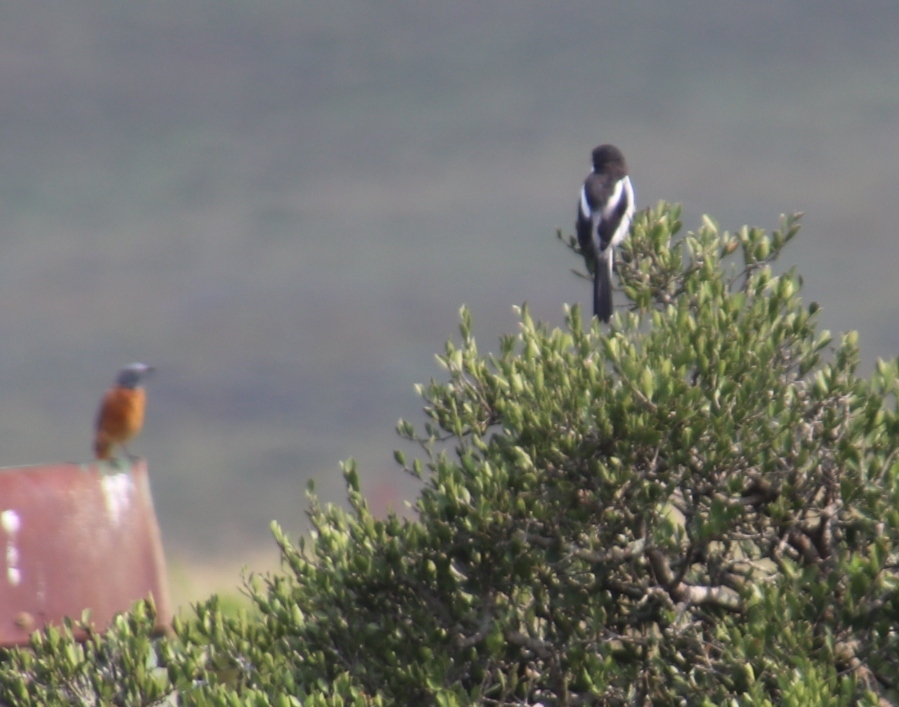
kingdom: Animalia
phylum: Chordata
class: Aves
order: Passeriformes
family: Laniidae
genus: Lanius
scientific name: Lanius collaris
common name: Southern fiscal
